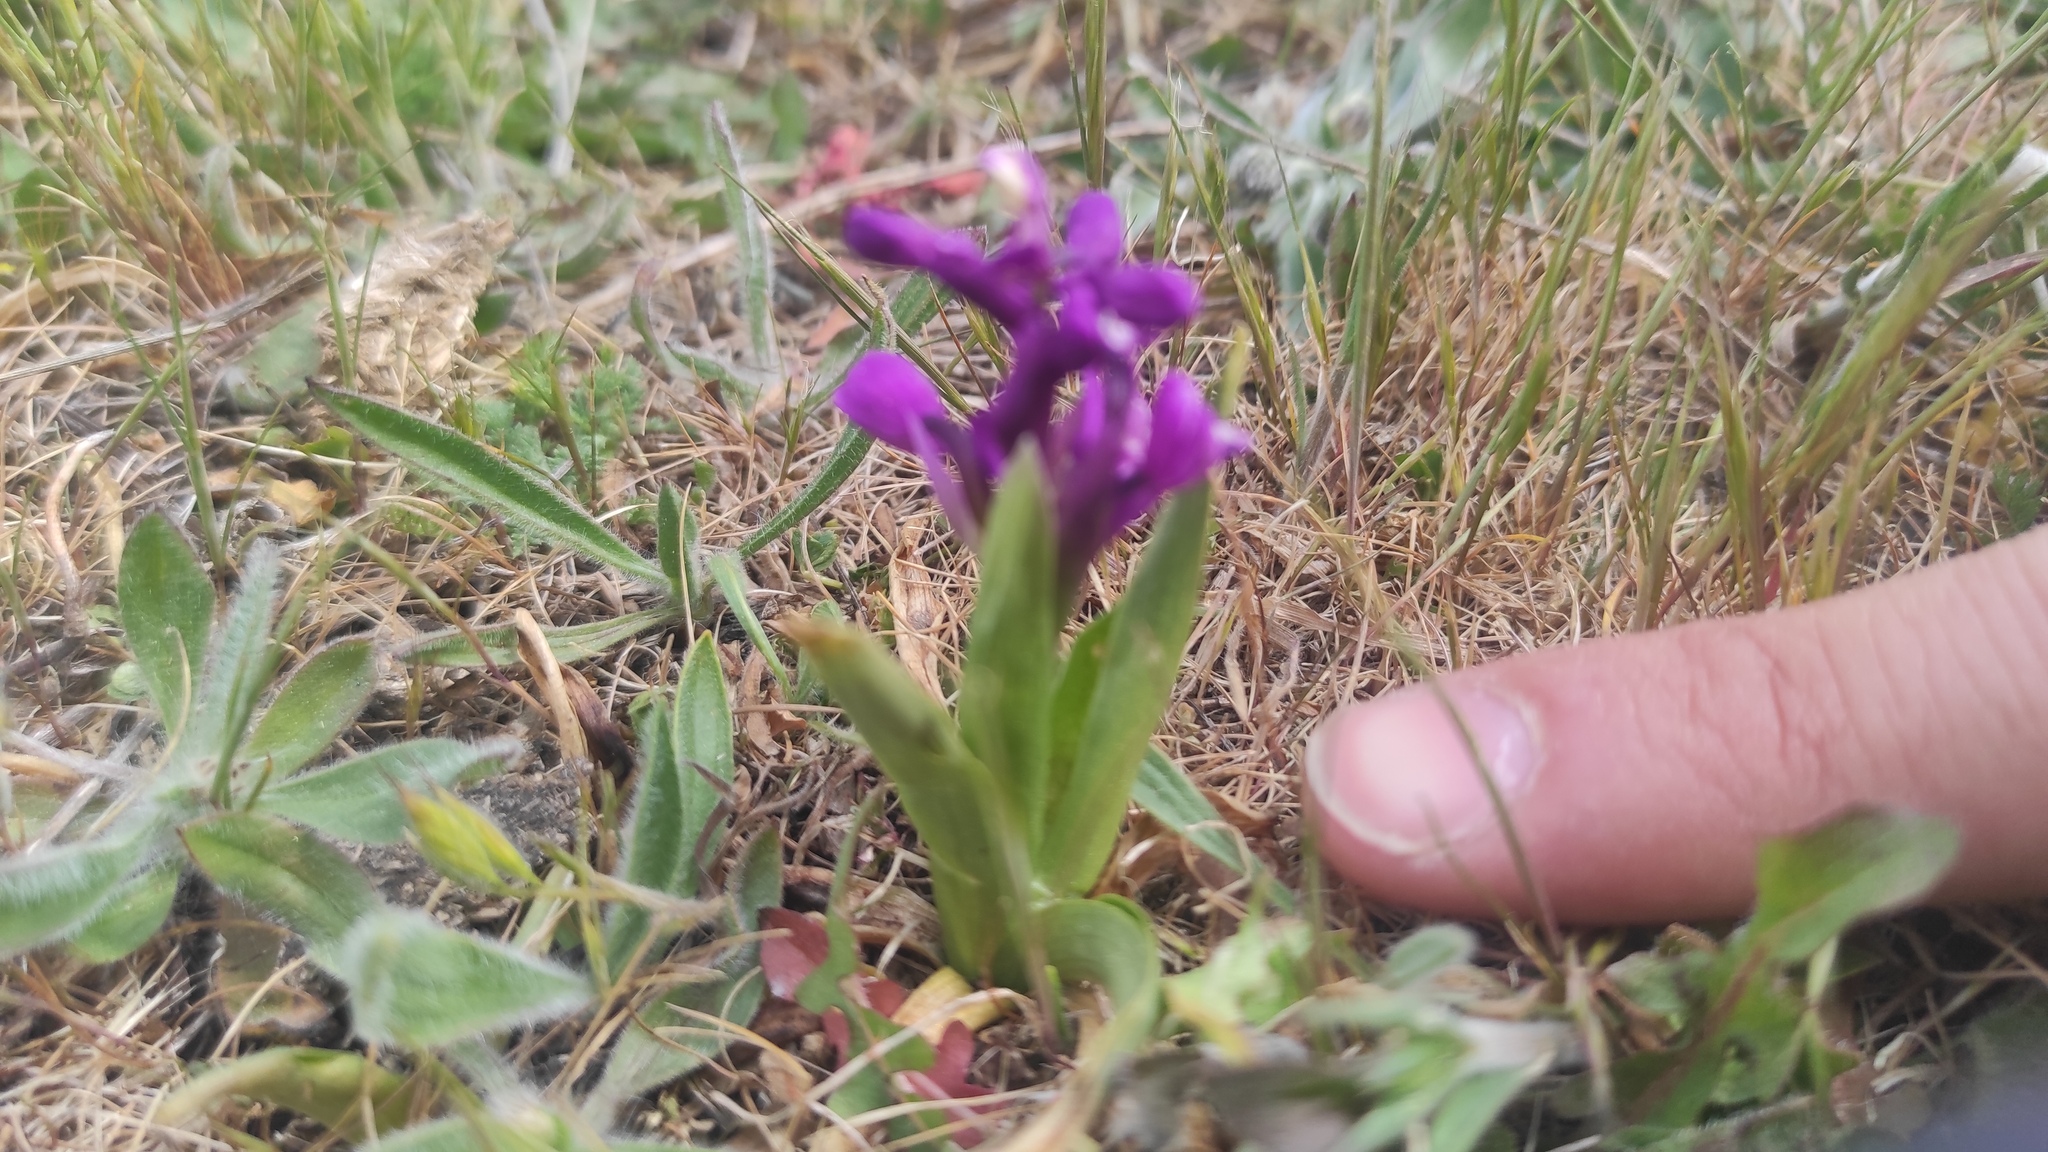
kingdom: Plantae
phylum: Tracheophyta
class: Liliopsida
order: Asparagales
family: Orchidaceae
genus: Anacamptis
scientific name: Anacamptis morio
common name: Green-winged orchid
